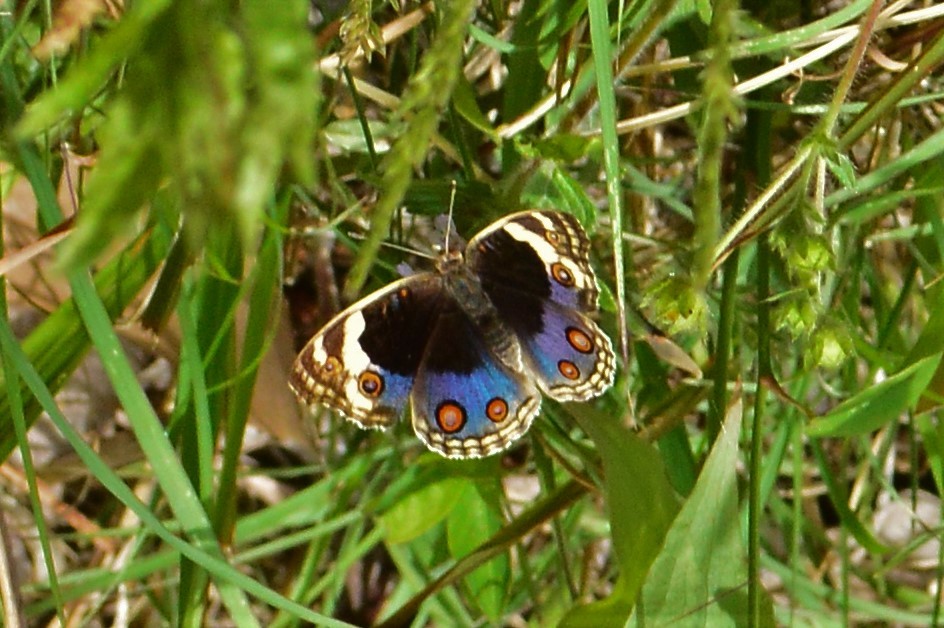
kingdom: Animalia
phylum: Arthropoda
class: Insecta
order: Lepidoptera
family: Nymphalidae
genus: Junonia
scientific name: Junonia orithya
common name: Blue pansy
